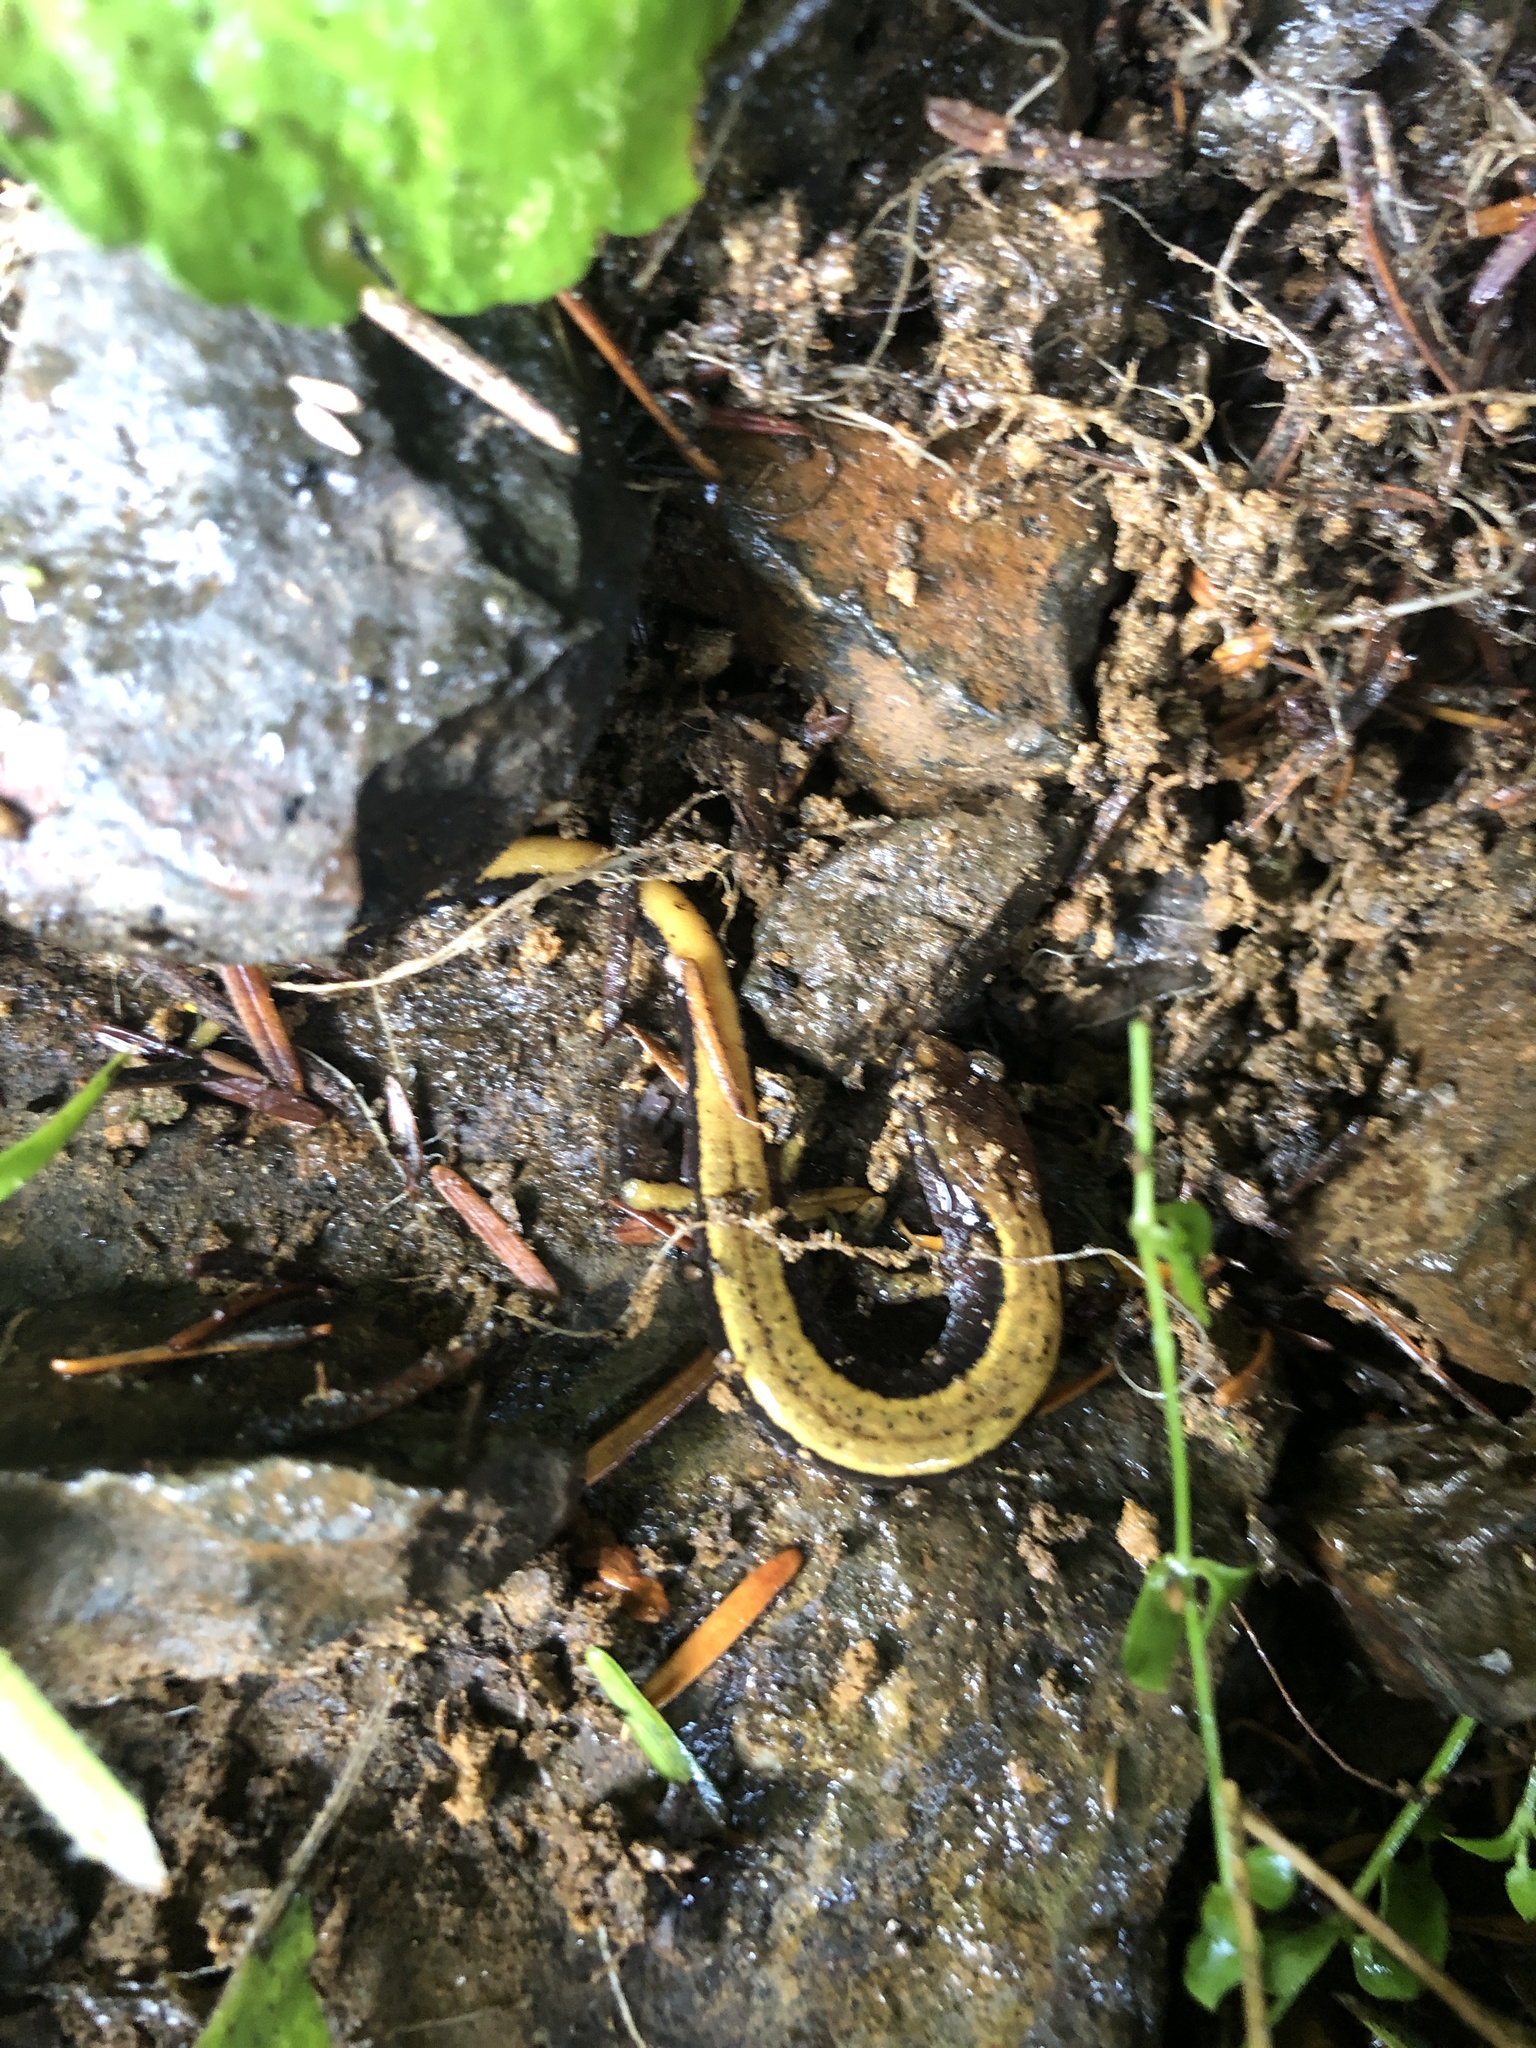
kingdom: Animalia
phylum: Chordata
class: Amphibia
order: Caudata
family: Plethodontidae
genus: Plethodon
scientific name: Plethodon vehiculum
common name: Western red-backed salamander
